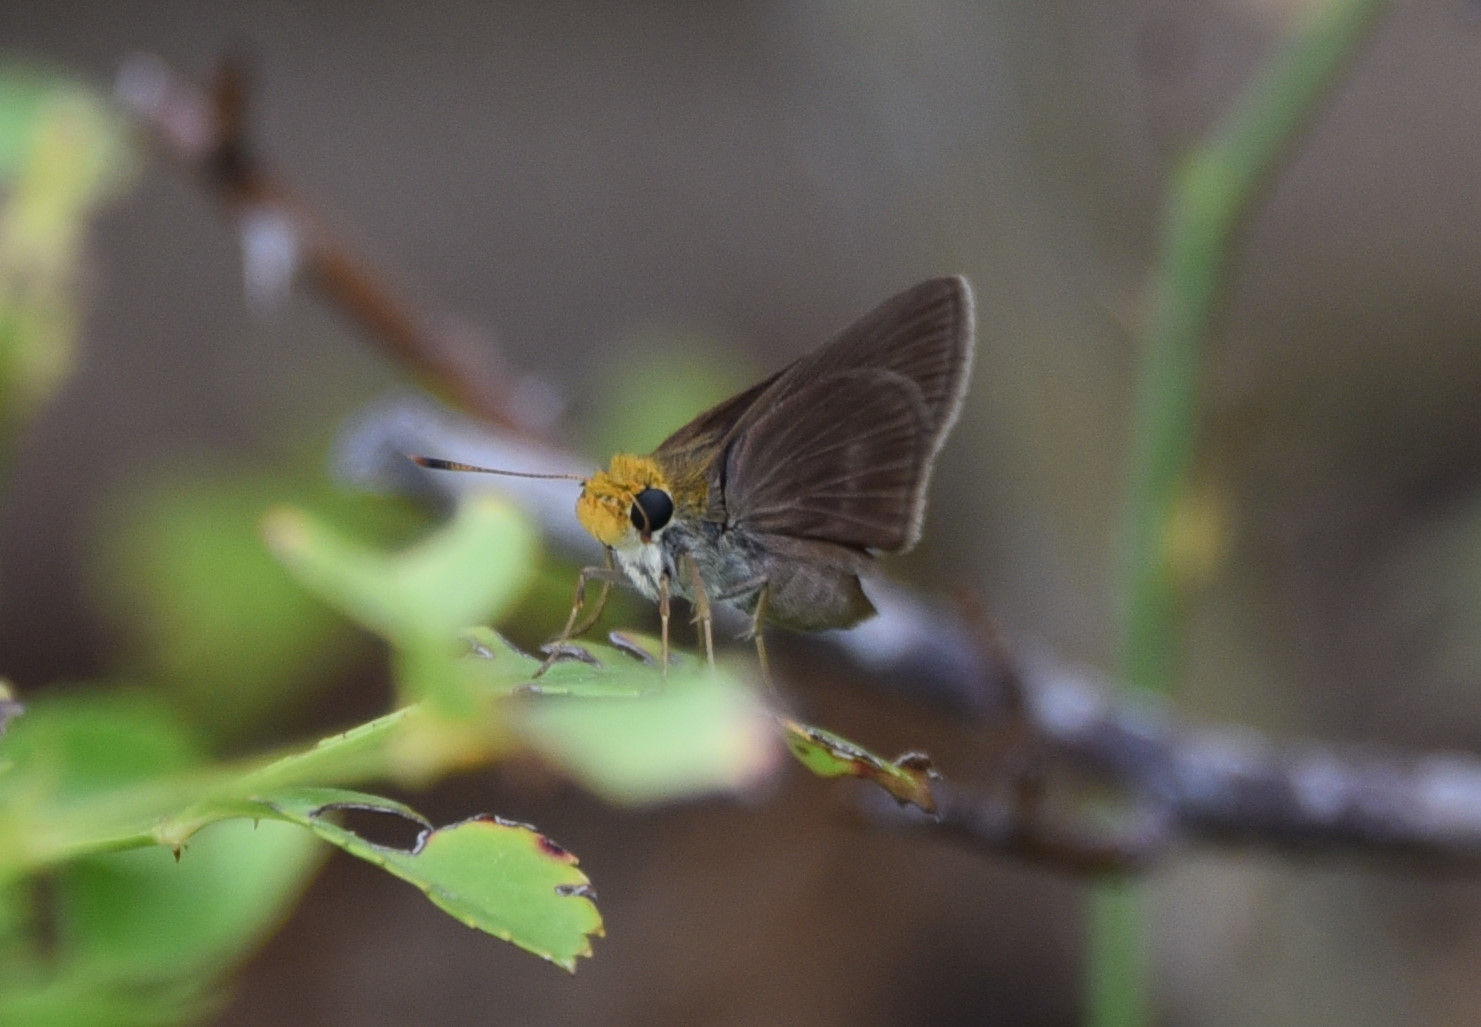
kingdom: Animalia
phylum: Arthropoda
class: Insecta
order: Lepidoptera
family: Hesperiidae
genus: Euphyes
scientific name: Euphyes vestris
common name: Dun skipper
